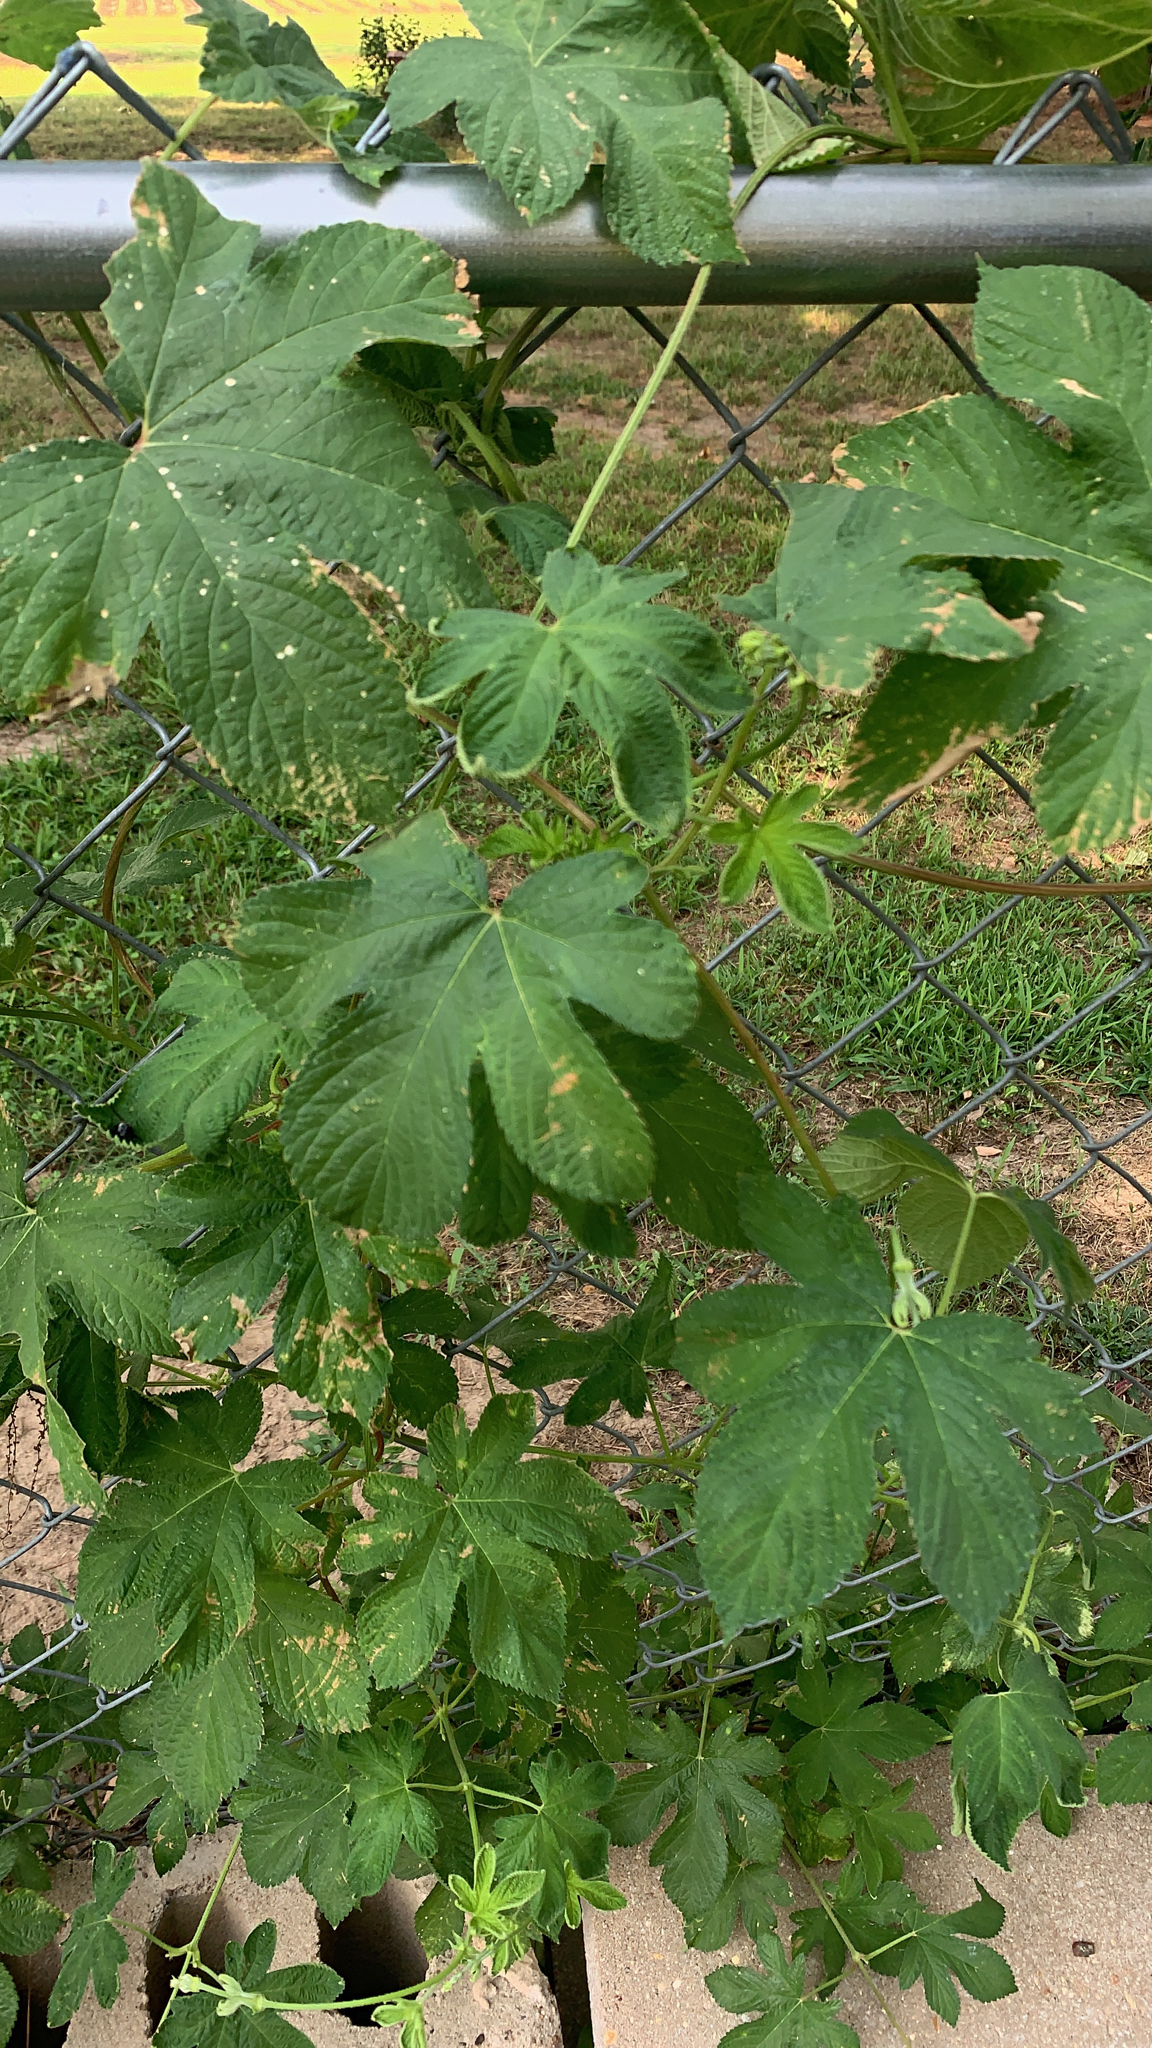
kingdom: Plantae
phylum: Tracheophyta
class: Magnoliopsida
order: Rosales
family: Cannabaceae
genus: Humulus
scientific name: Humulus scandens
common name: Japanese hop
